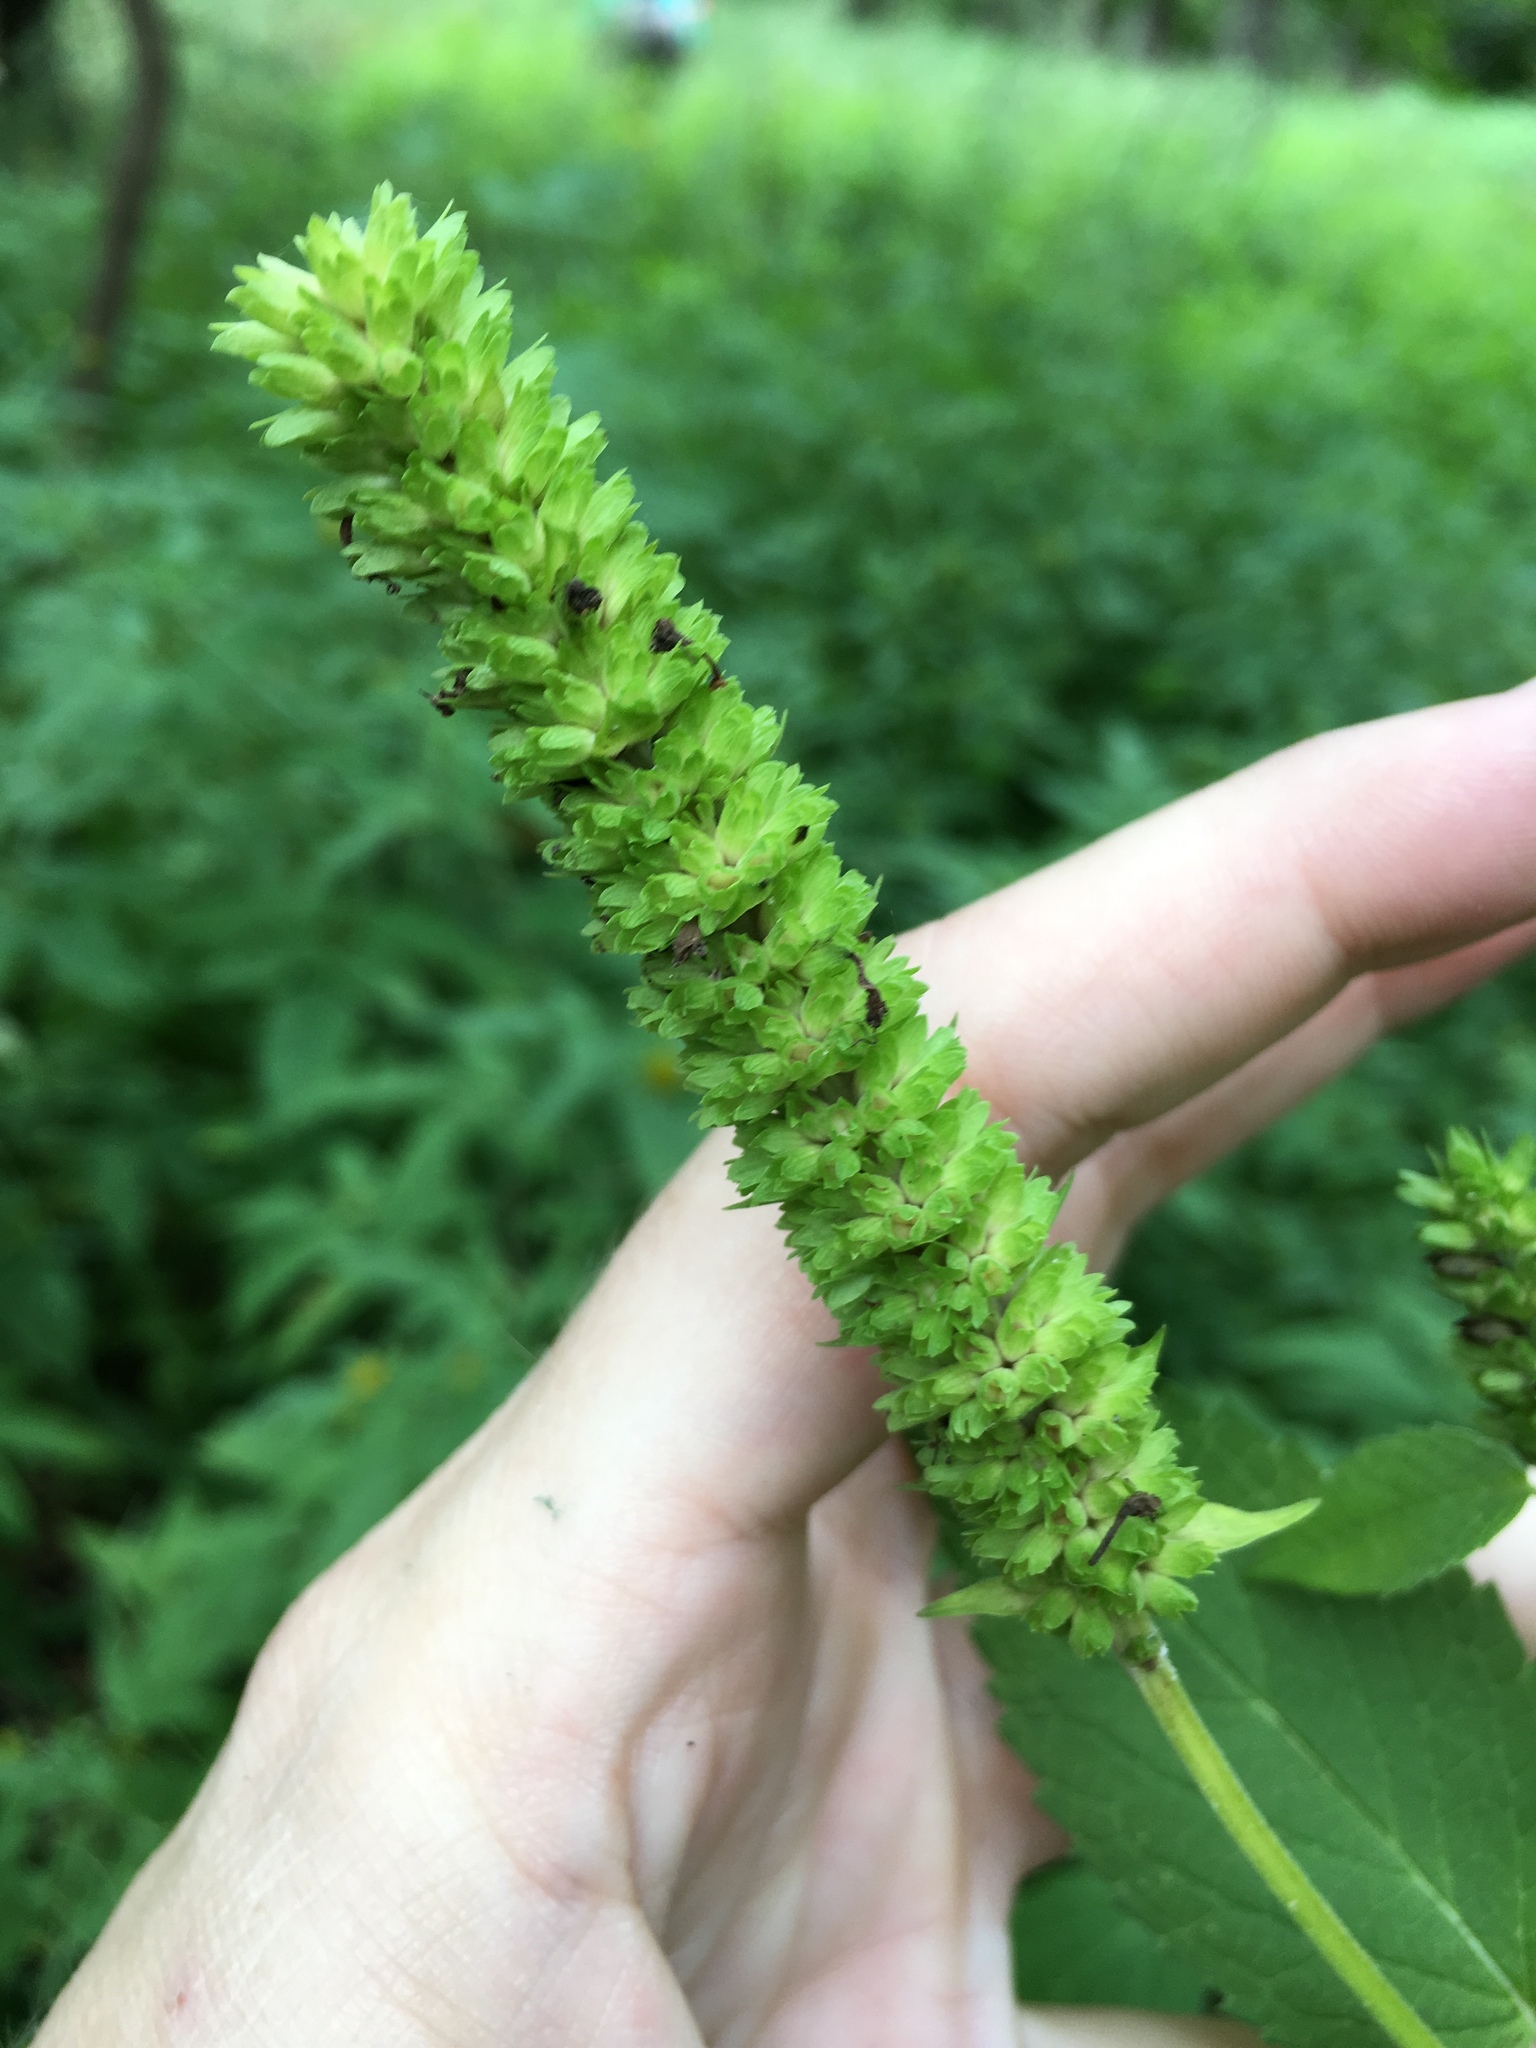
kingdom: Plantae
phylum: Tracheophyta
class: Magnoliopsida
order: Lamiales
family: Lamiaceae
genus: Agastache
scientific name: Agastache nepetoides
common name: Catnip giant hyssop
